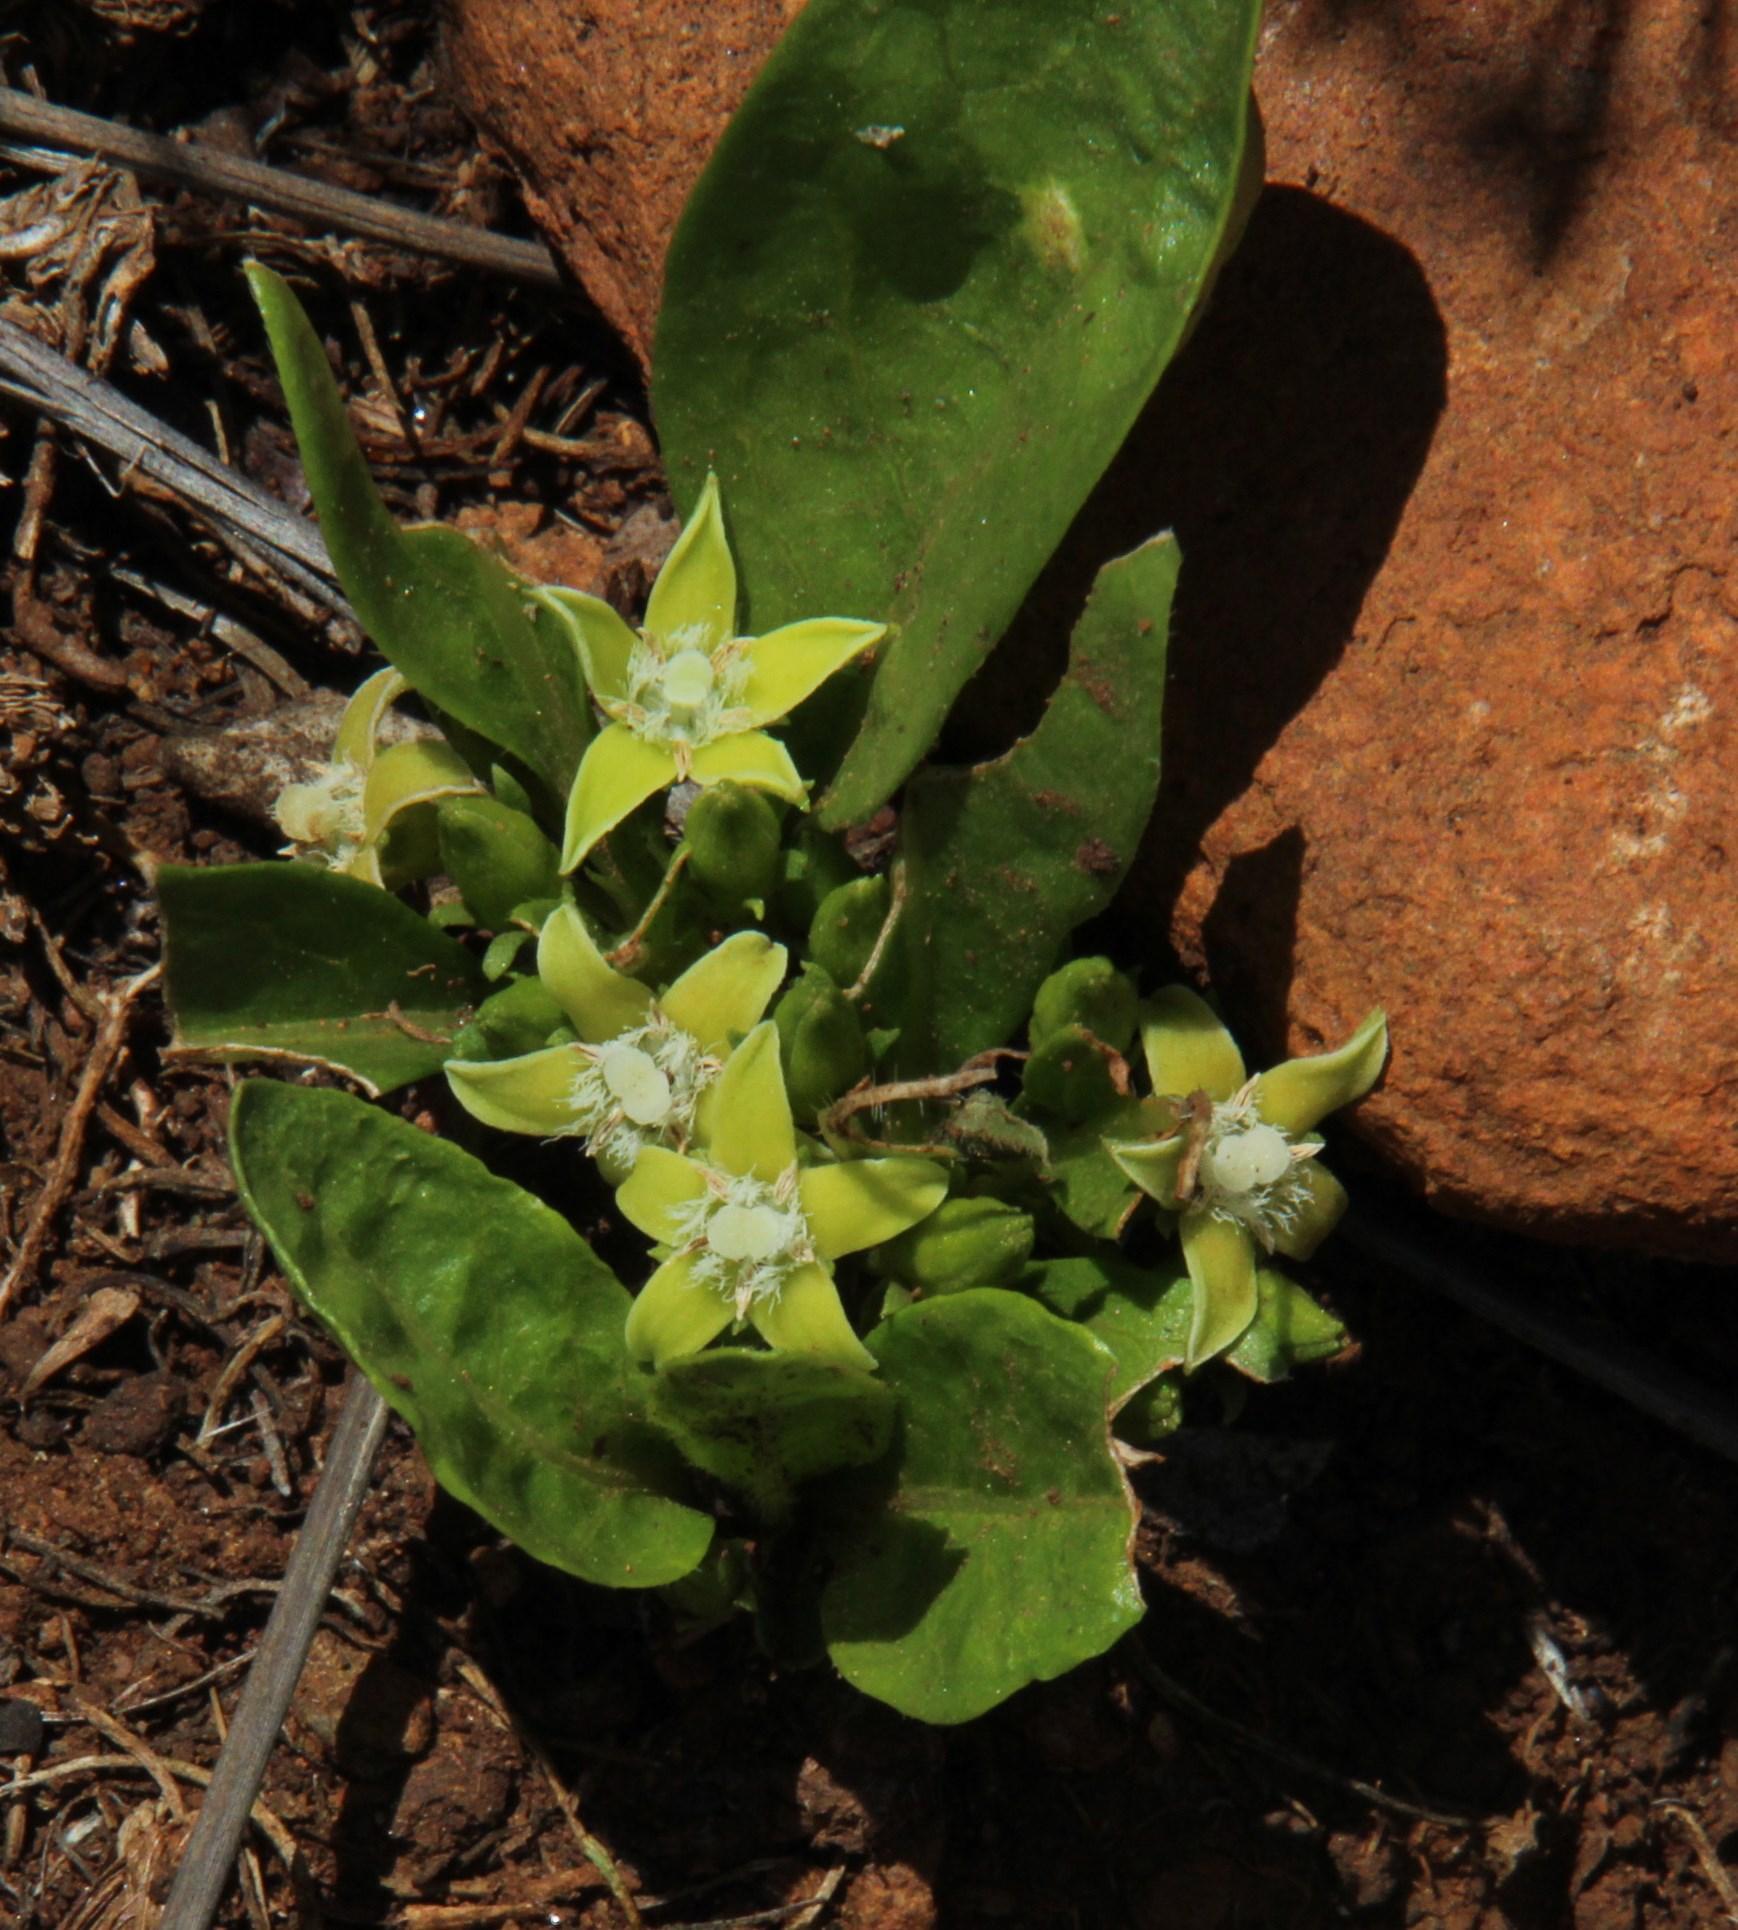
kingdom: Plantae
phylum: Tracheophyta
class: Magnoliopsida
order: Gentianales
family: Rubiaceae
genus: Bridsonia
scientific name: Bridsonia chamaedendrum
